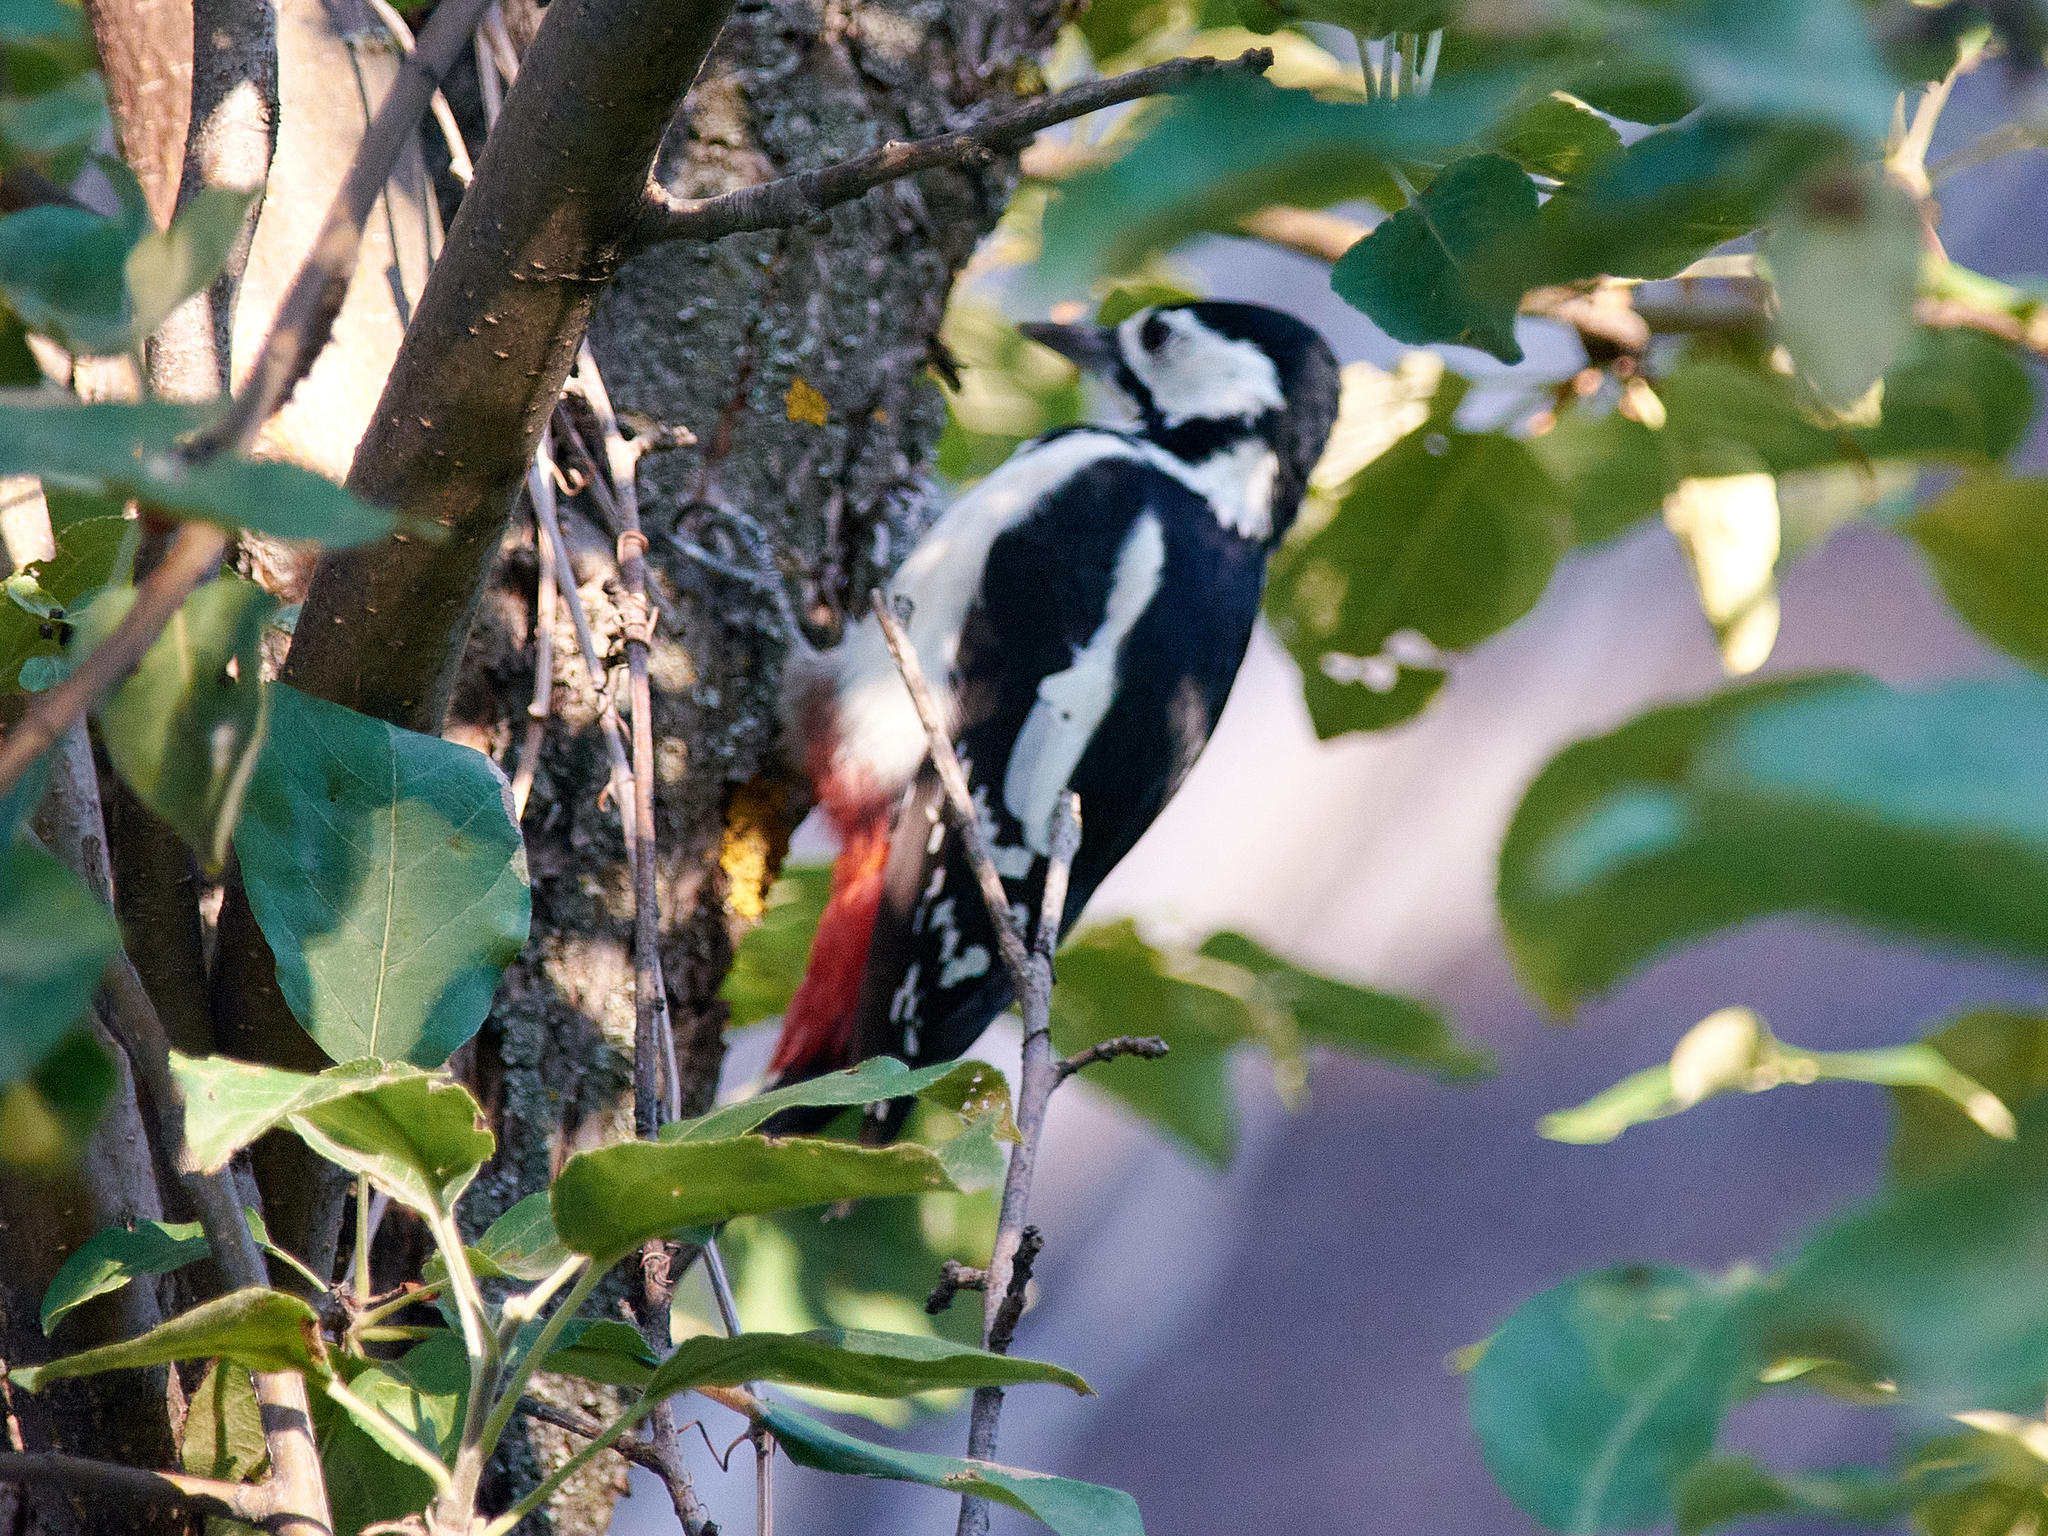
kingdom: Animalia
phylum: Chordata
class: Aves
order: Piciformes
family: Picidae
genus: Dendrocopos
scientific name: Dendrocopos major
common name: Great spotted woodpecker
